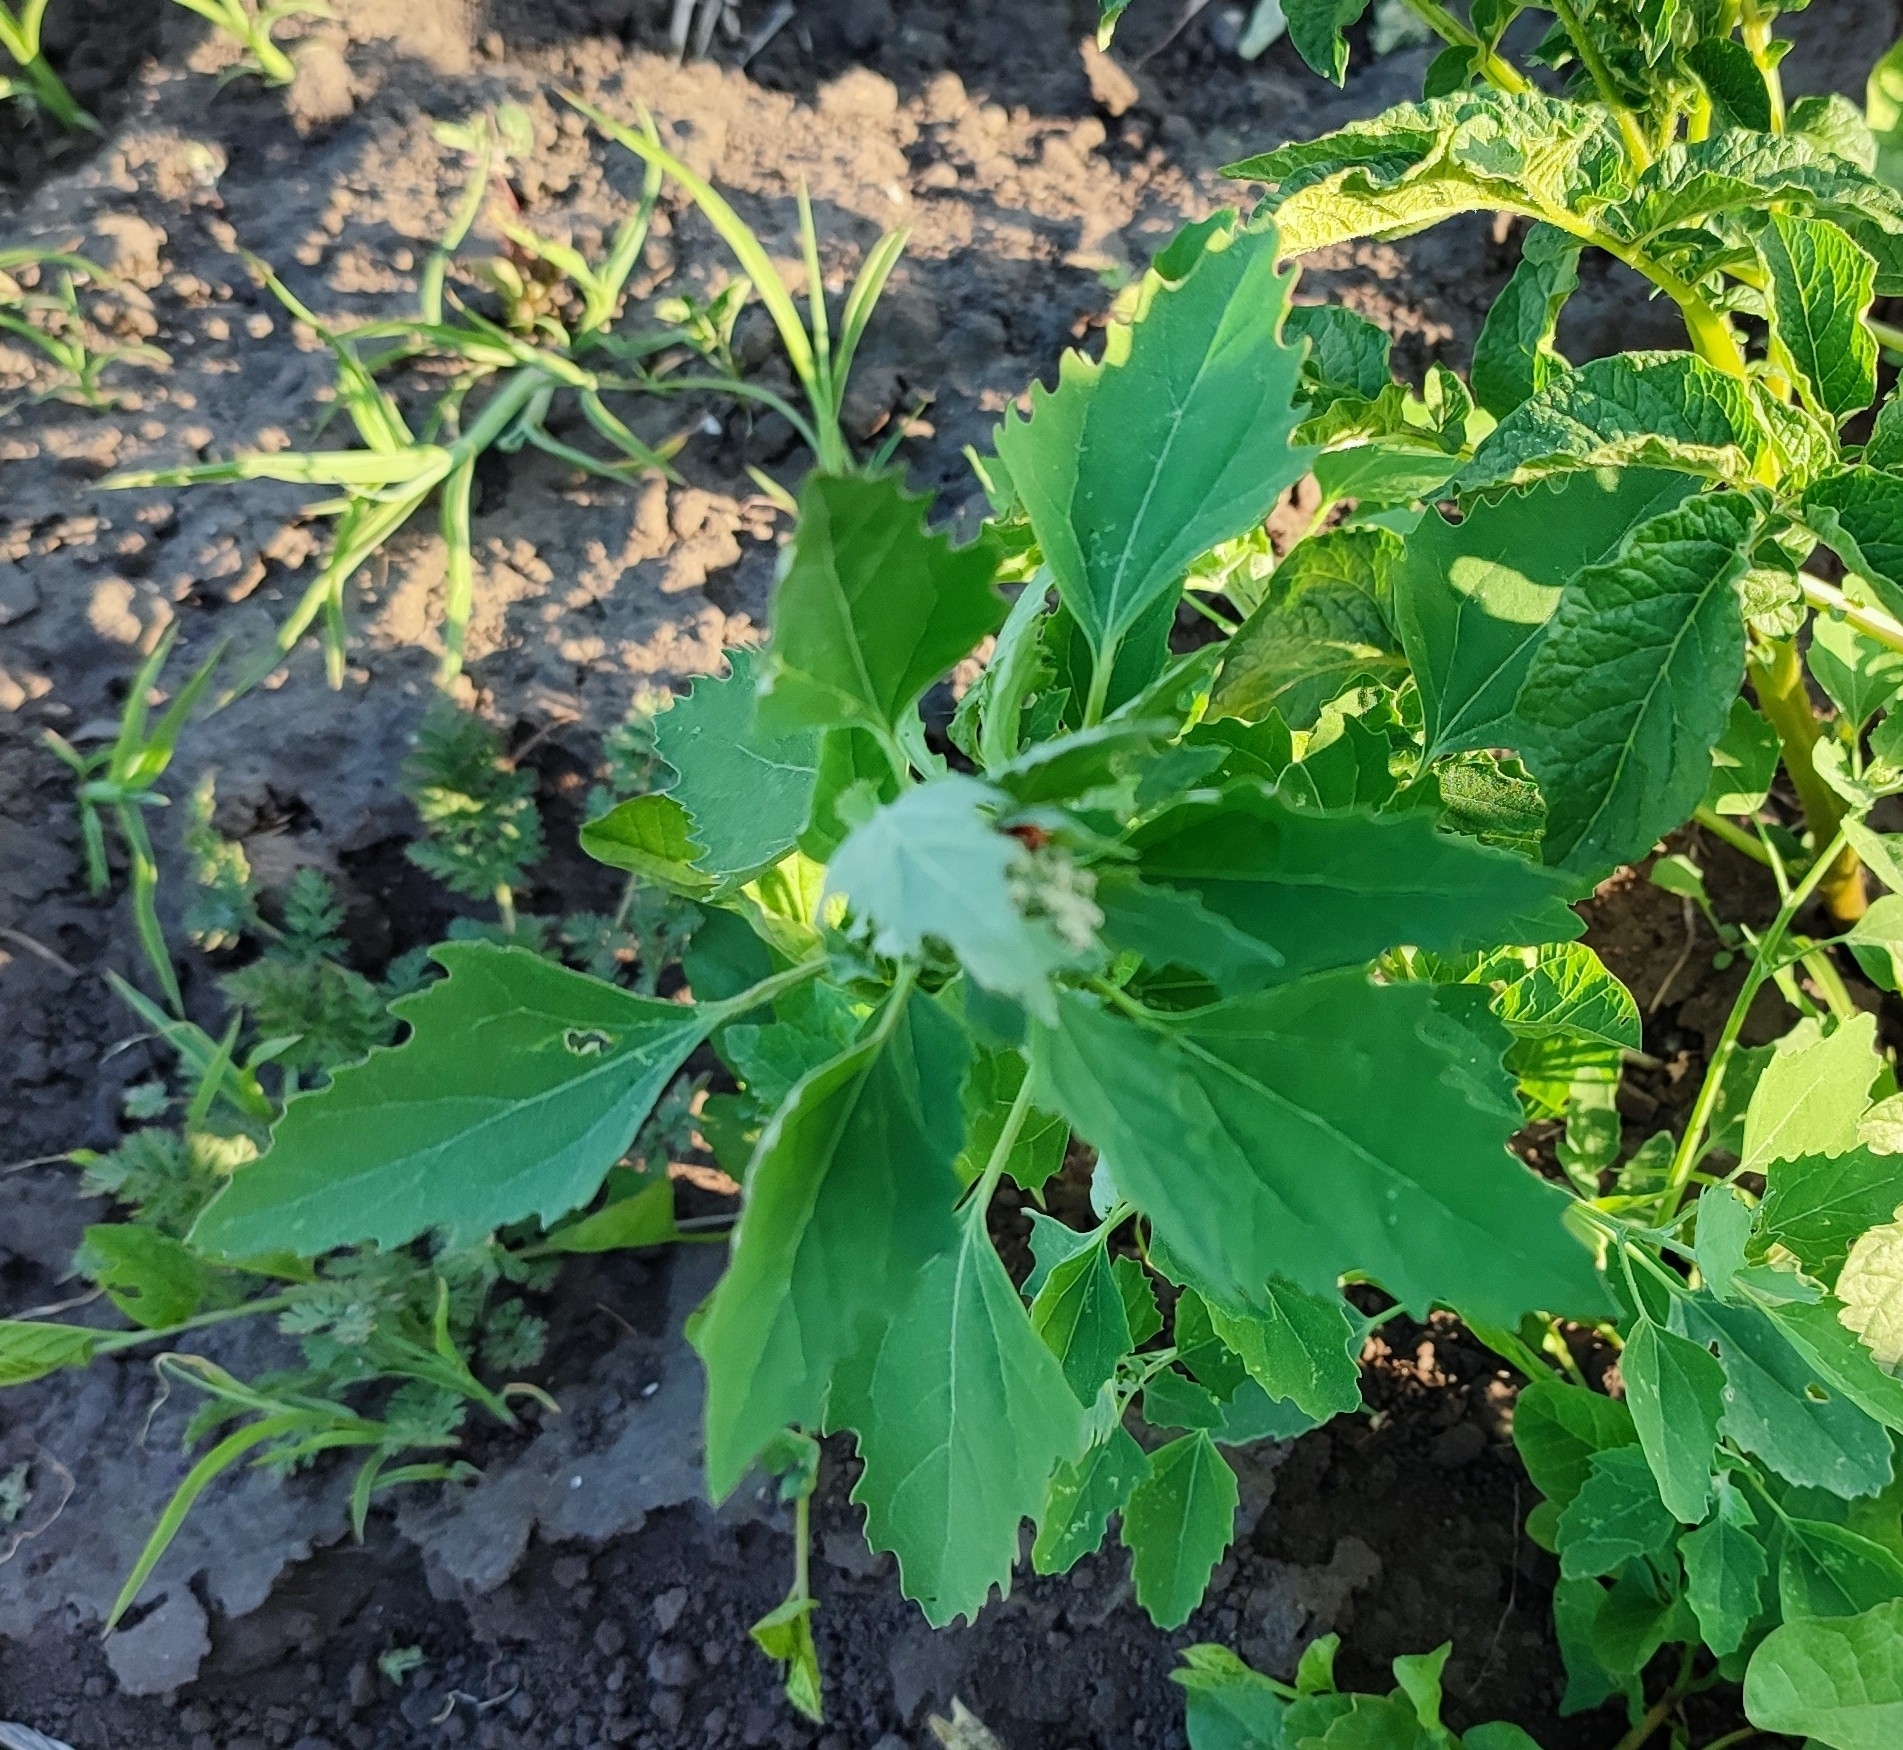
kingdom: Plantae
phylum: Tracheophyta
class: Magnoliopsida
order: Caryophyllales
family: Amaranthaceae
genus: Chenopodium
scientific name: Chenopodium album
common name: Fat-hen
